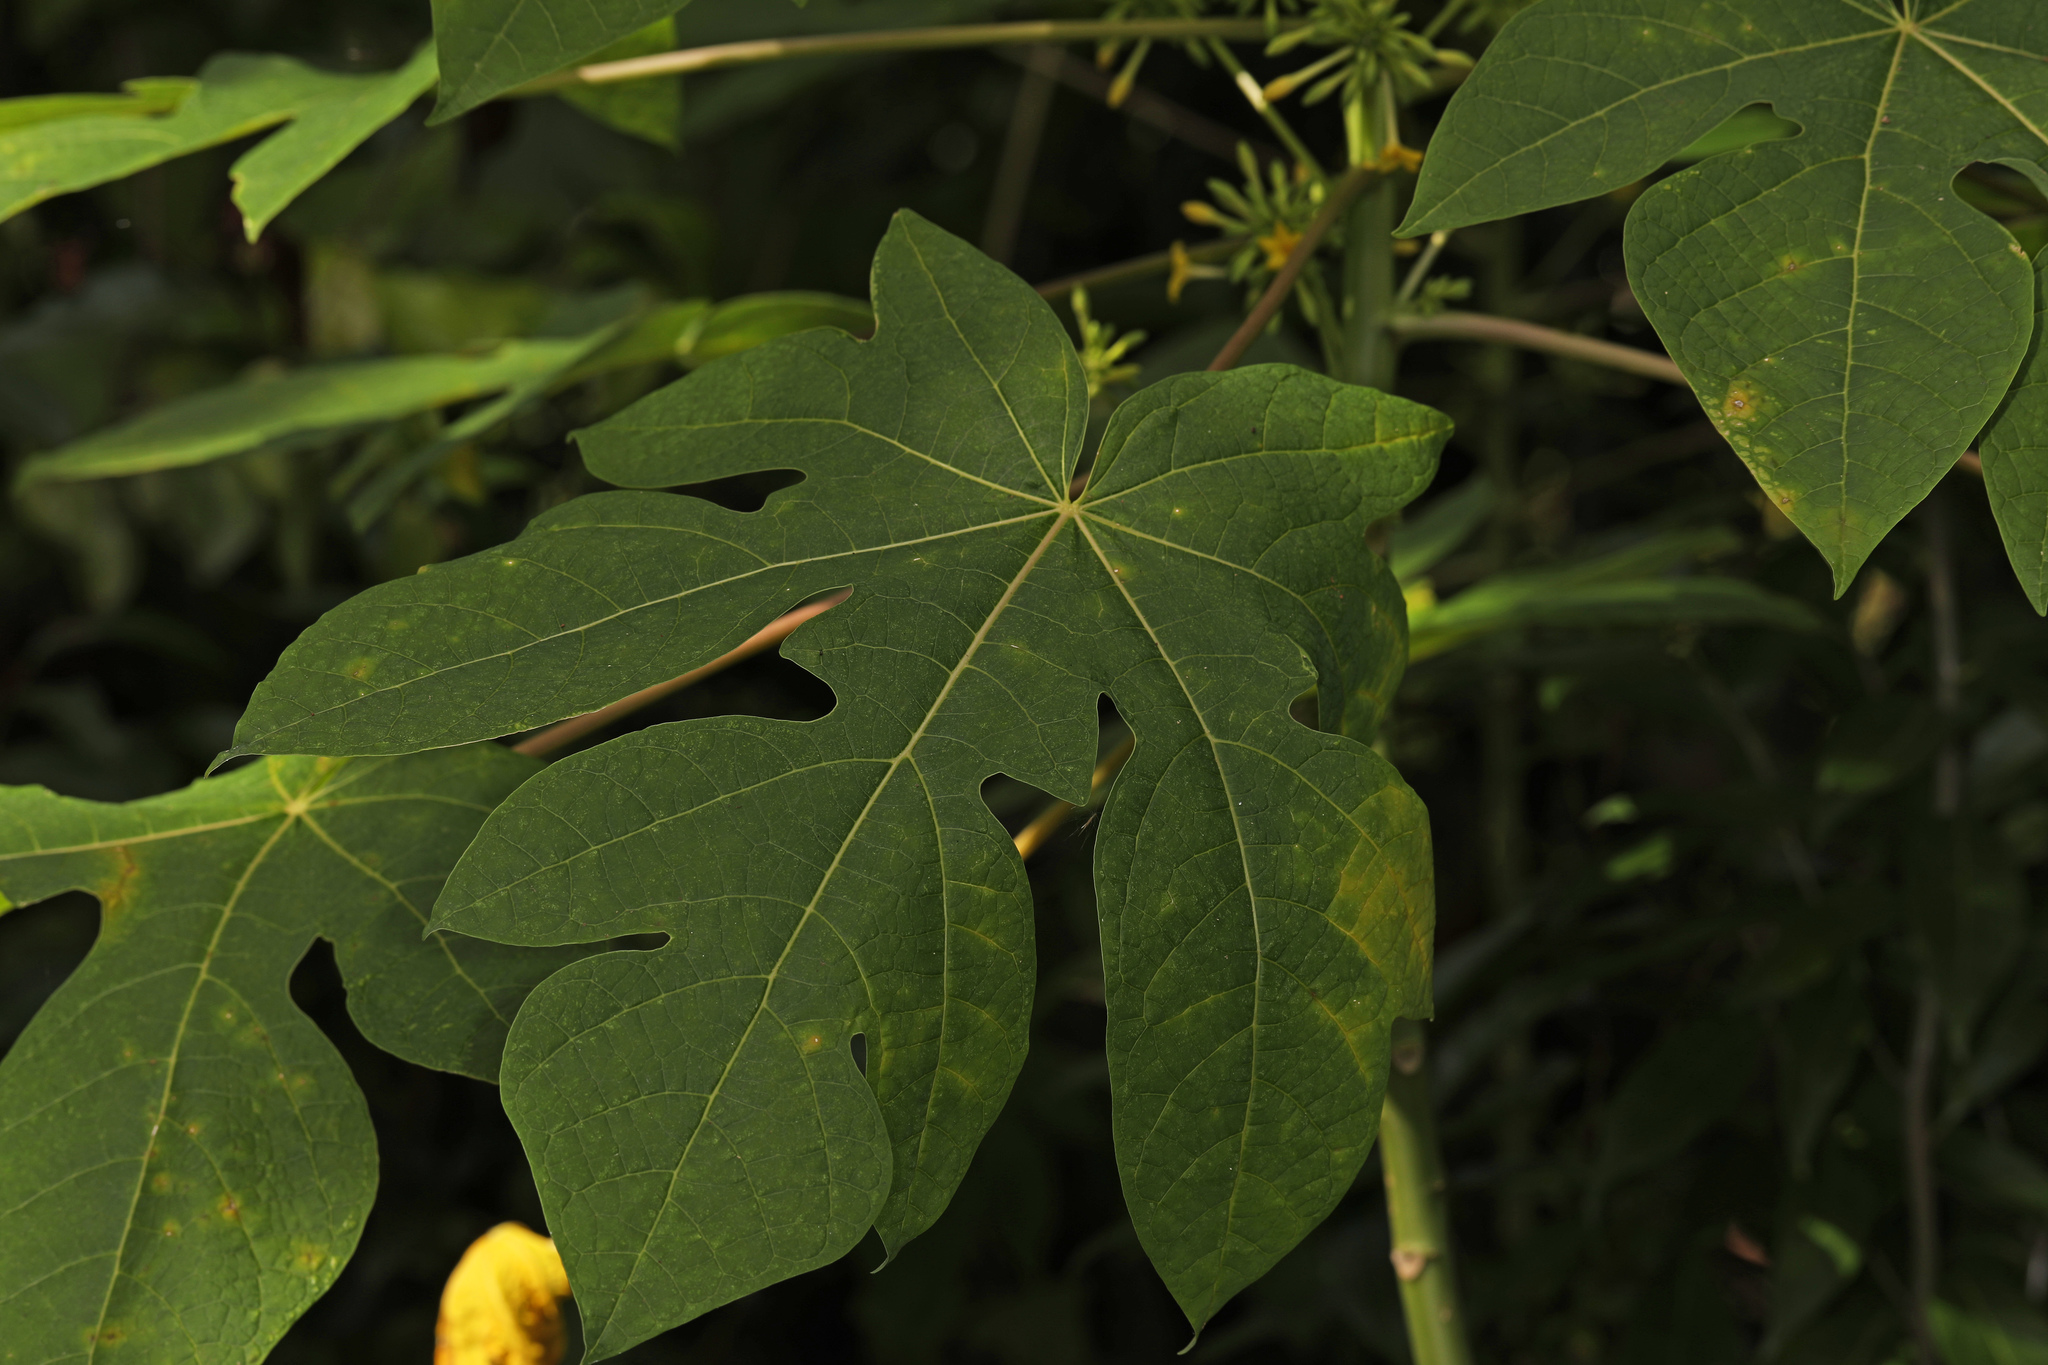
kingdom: Plantae
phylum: Tracheophyta
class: Magnoliopsida
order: Brassicales
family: Caricaceae
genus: Carica
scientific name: Carica papaya
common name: Papaya
